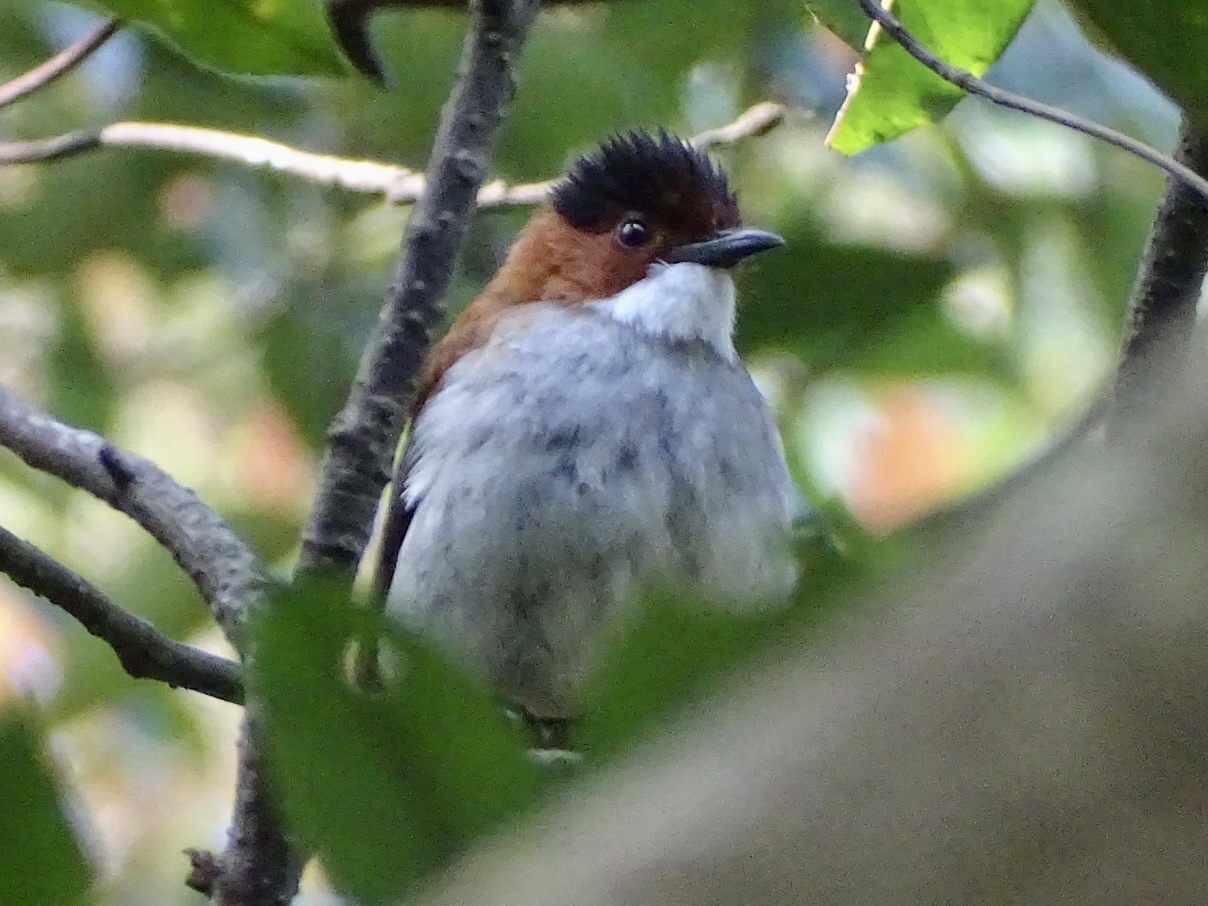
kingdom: Animalia
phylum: Chordata
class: Aves
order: Passeriformes
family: Pycnonotidae
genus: Hemixos
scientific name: Hemixos castanonotus
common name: Chestnut bulbul
